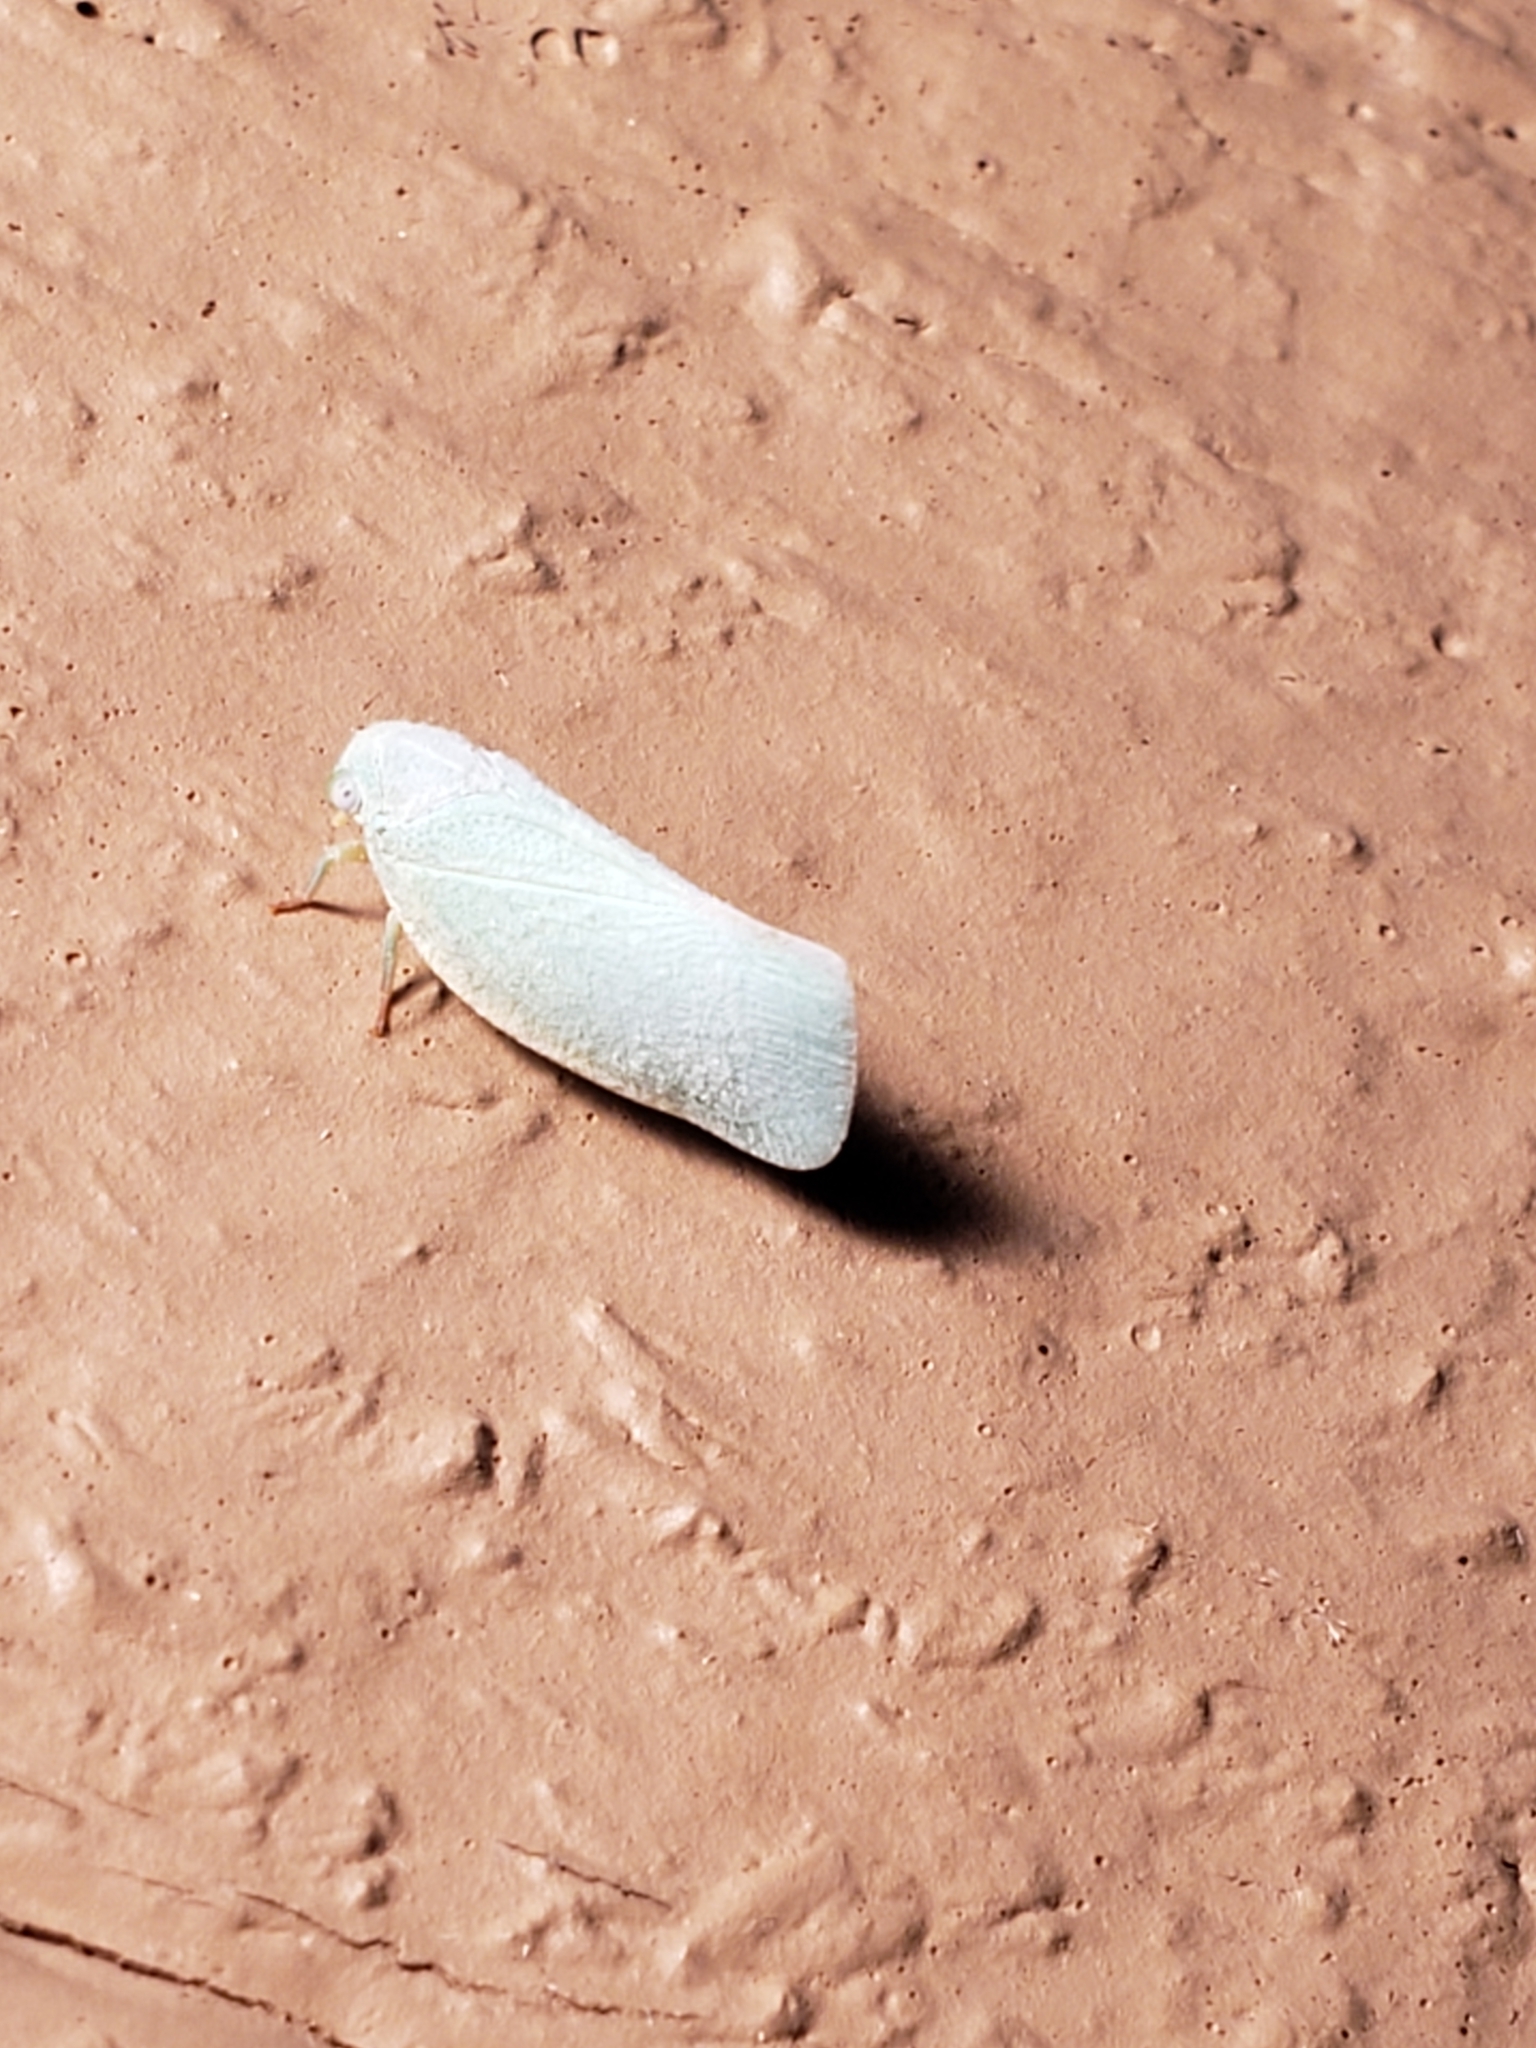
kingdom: Animalia
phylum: Arthropoda
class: Insecta
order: Hemiptera
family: Flatidae
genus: Flatormenis
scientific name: Flatormenis proxima
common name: Northern flatid planthopper
